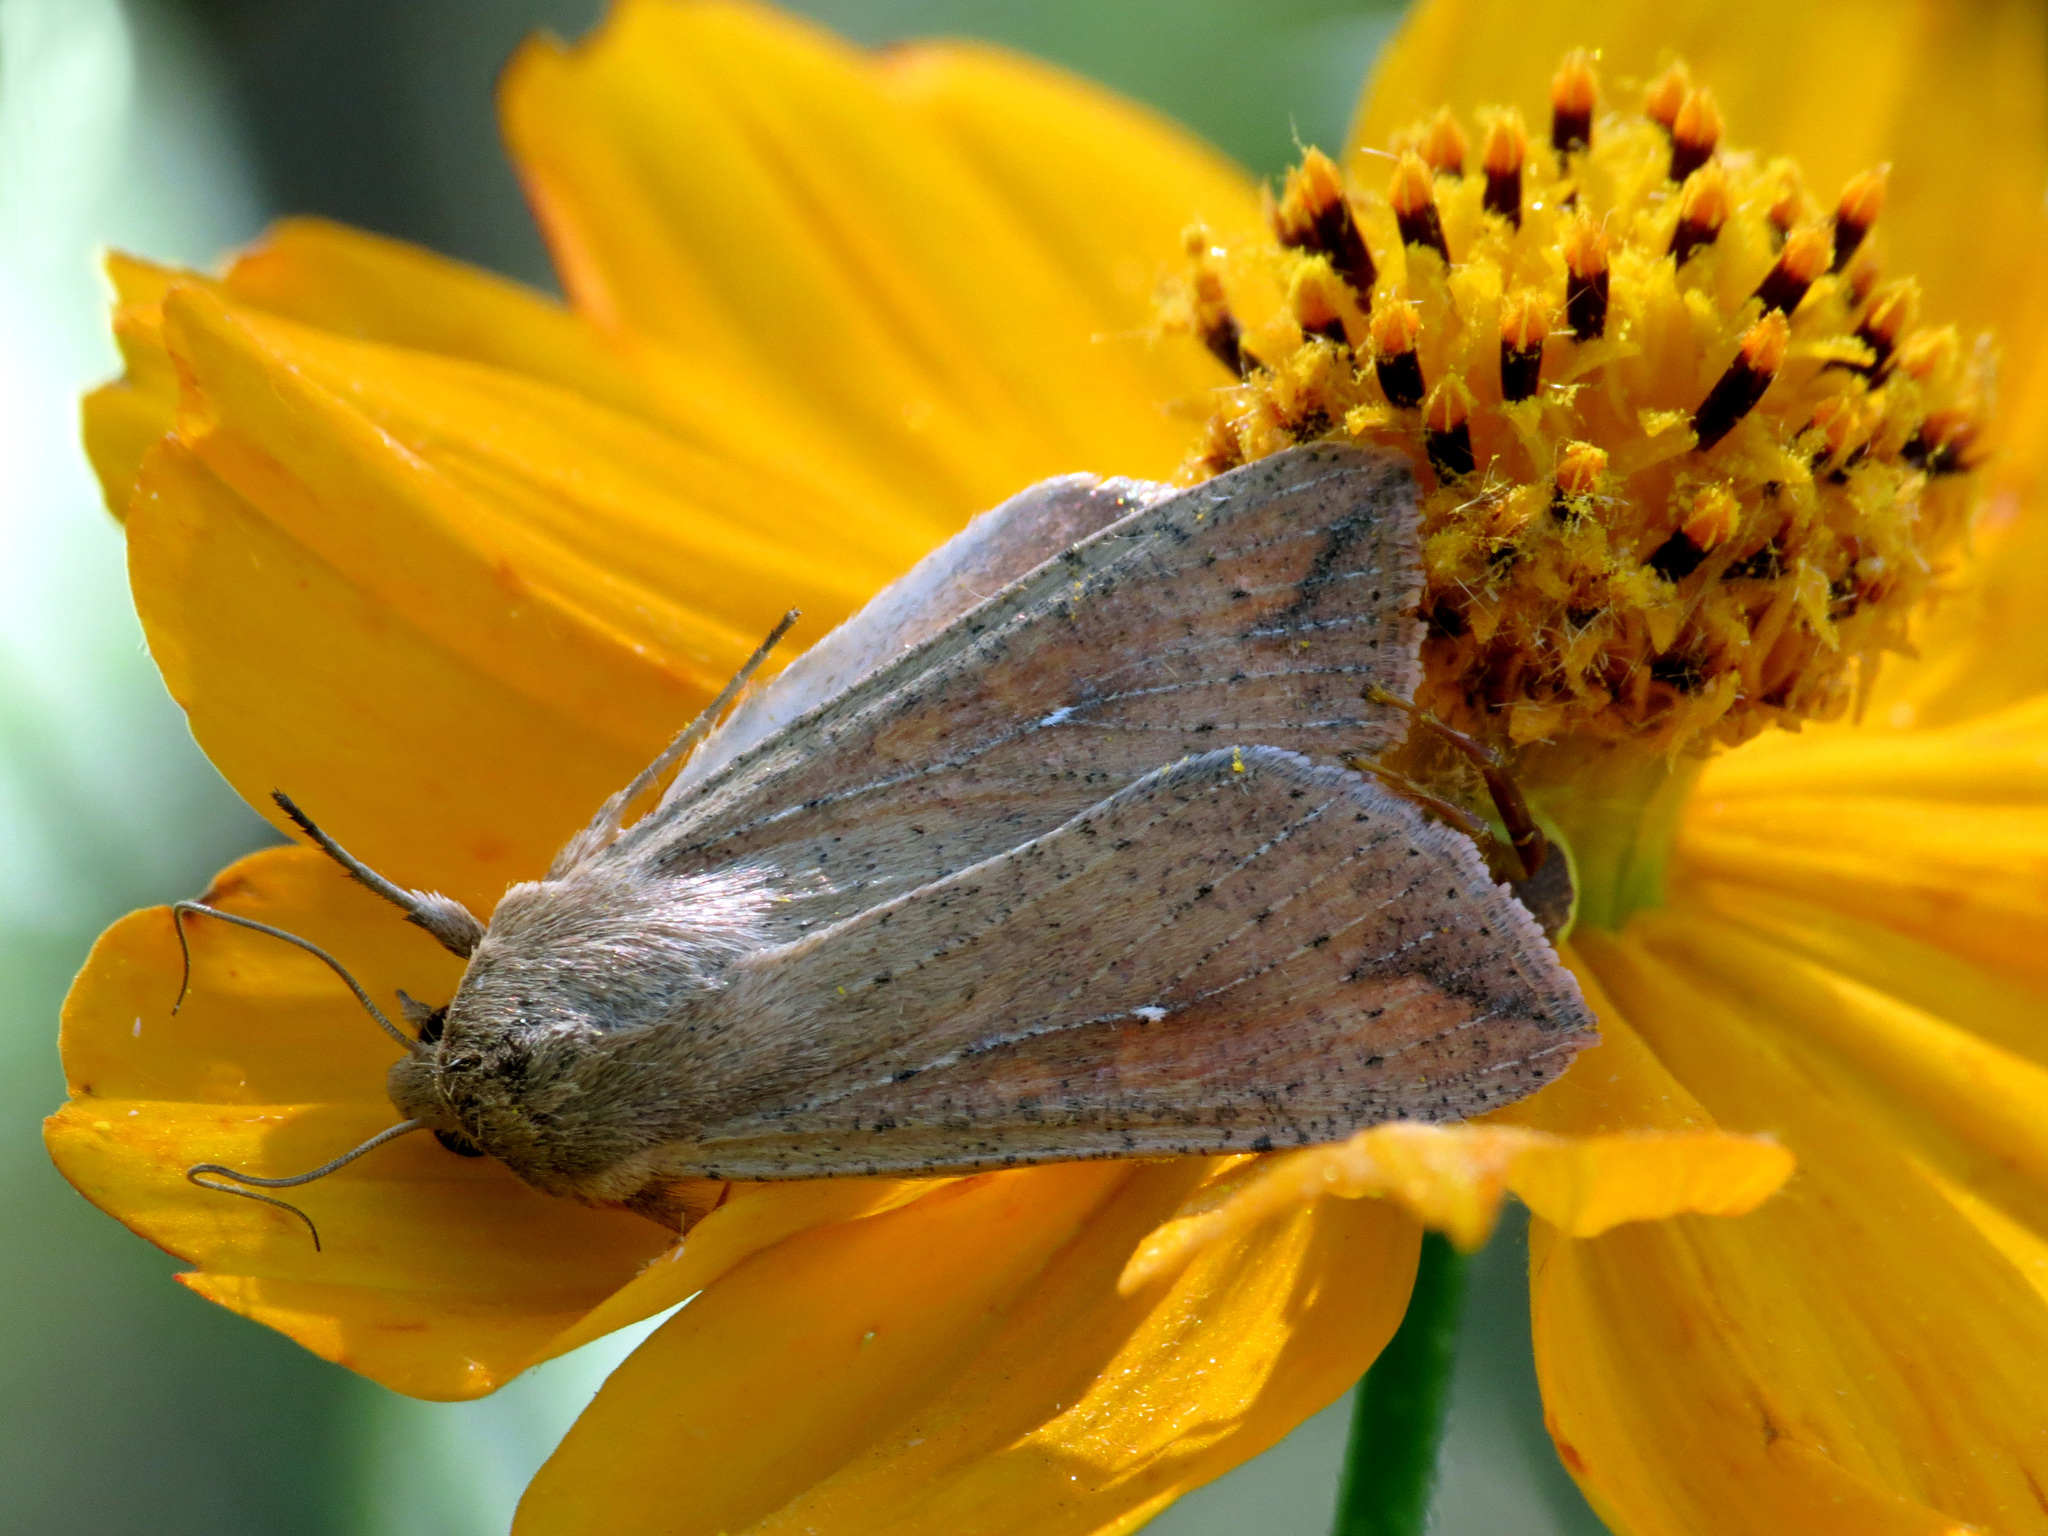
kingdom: Animalia
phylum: Arthropoda
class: Insecta
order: Lepidoptera
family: Noctuidae
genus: Mythimna
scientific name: Mythimna unipuncta
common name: White-speck
